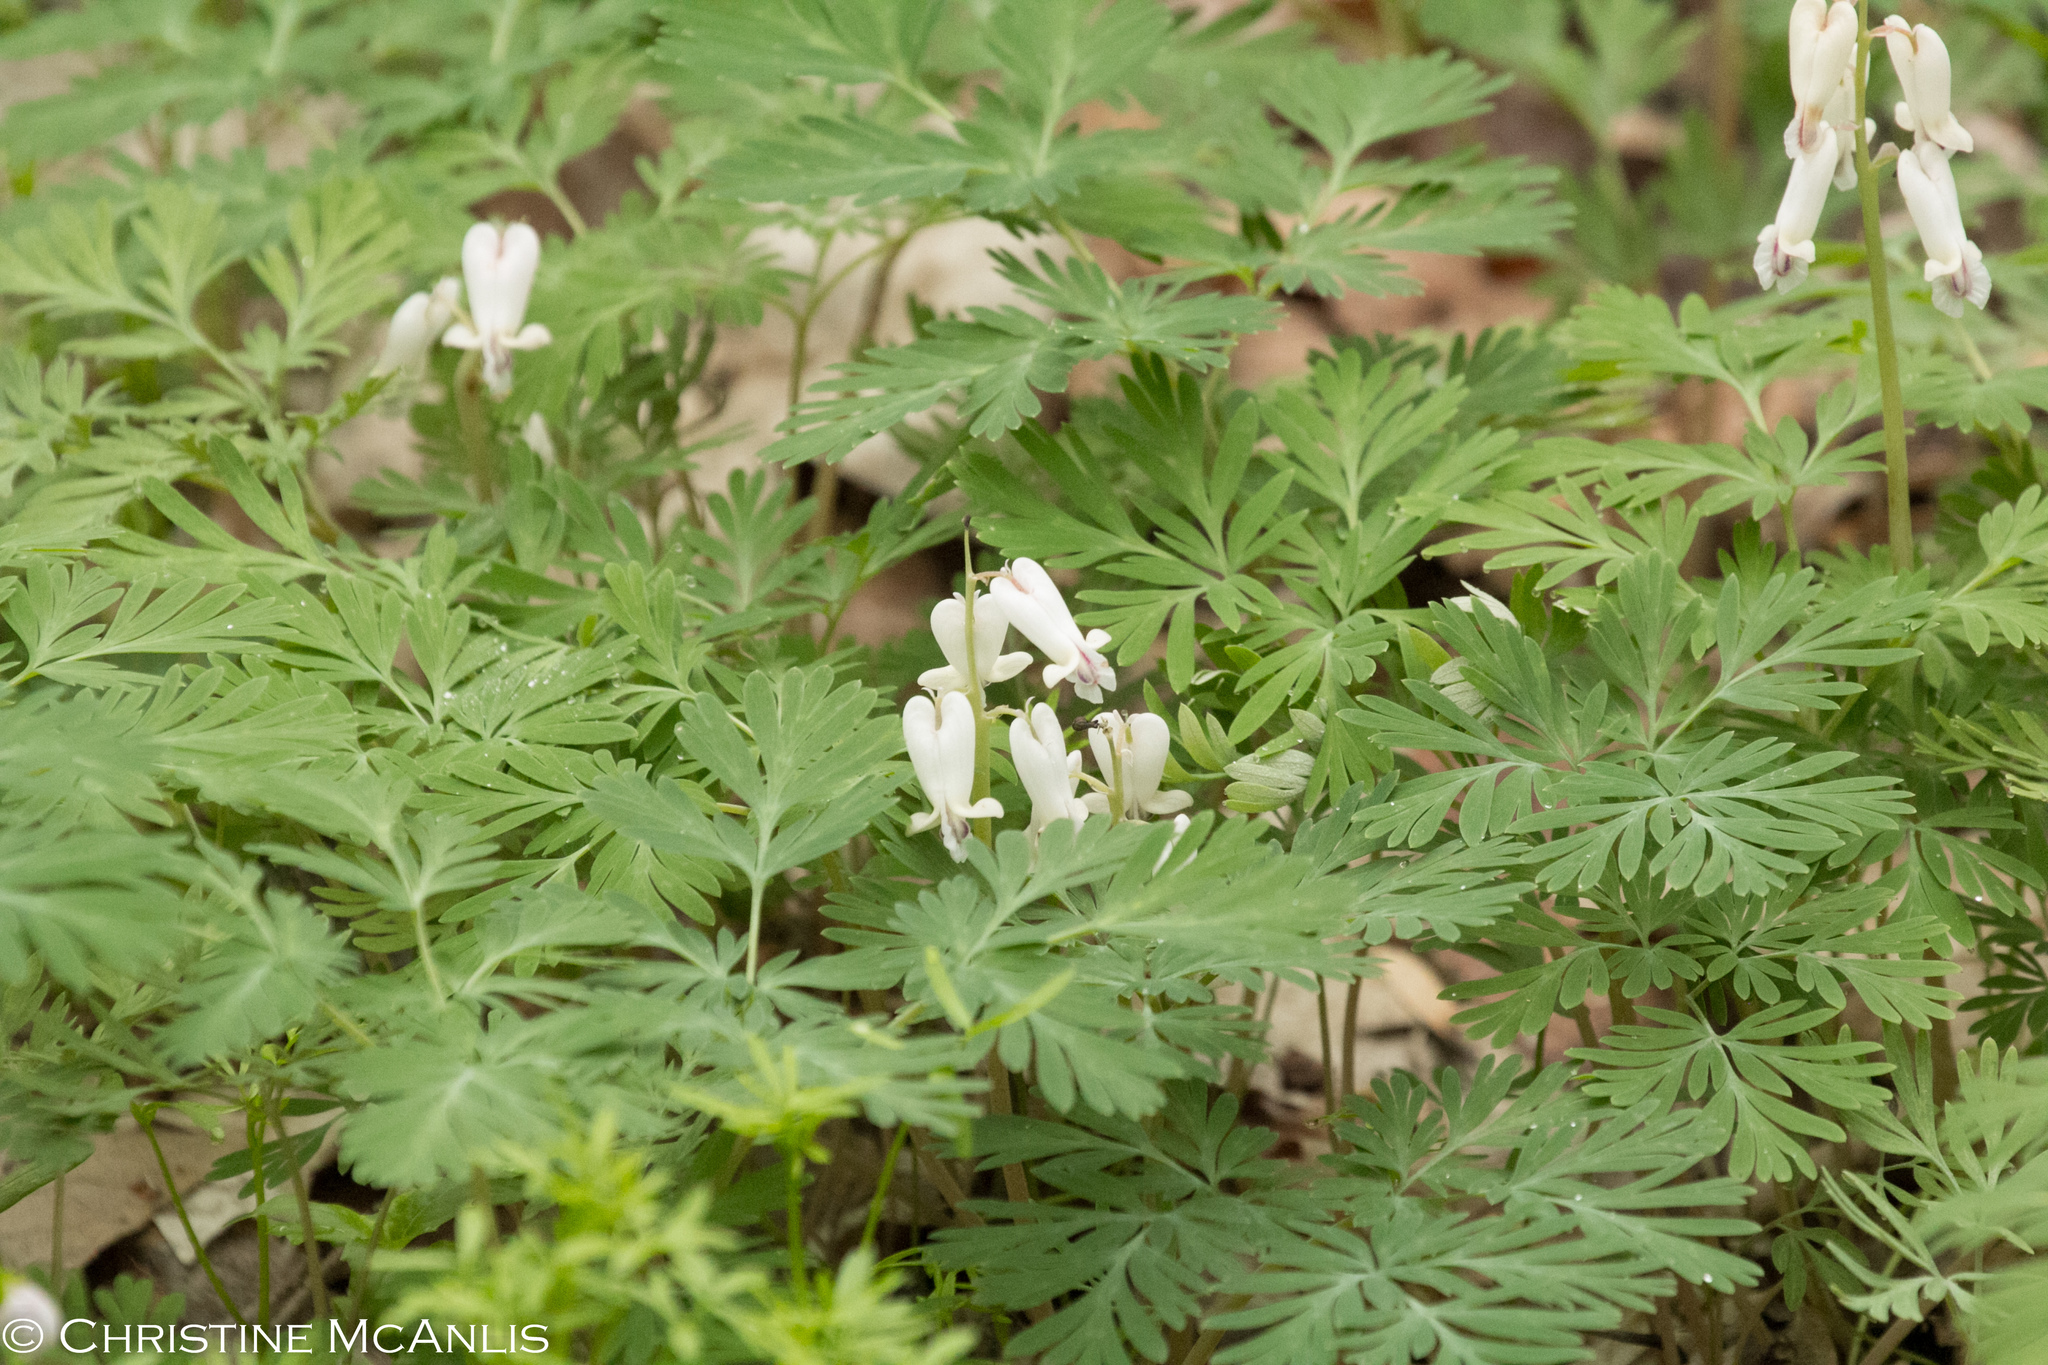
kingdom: Plantae
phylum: Tracheophyta
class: Magnoliopsida
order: Ranunculales
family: Papaveraceae
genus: Dicentra
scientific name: Dicentra canadensis
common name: Squirrel-corn
